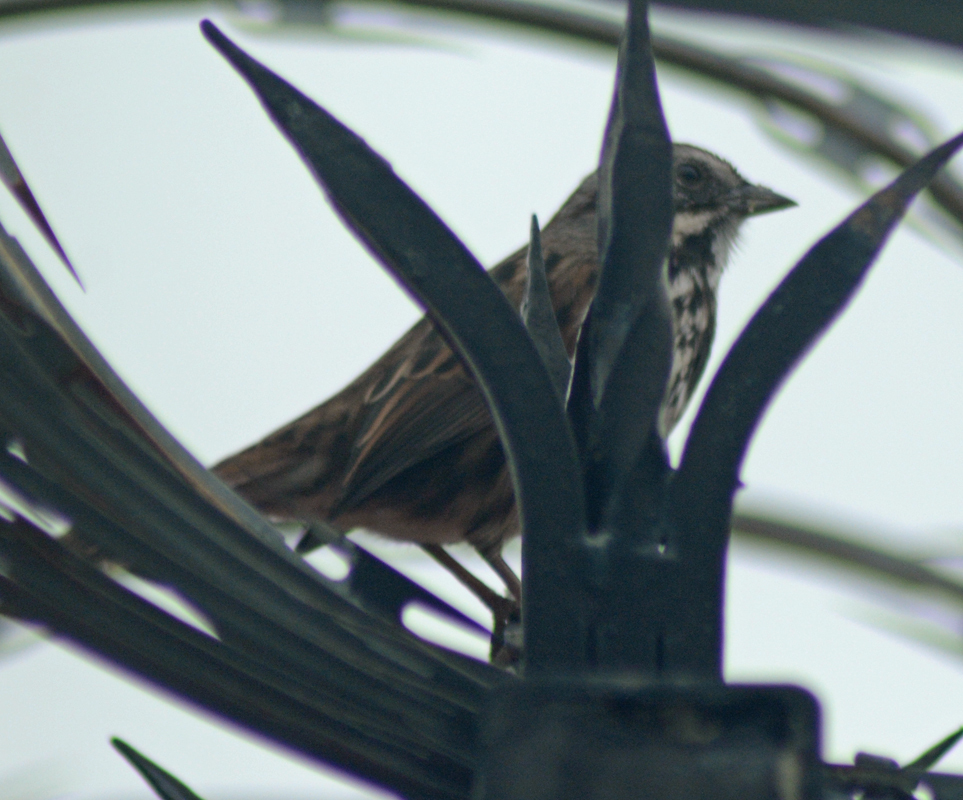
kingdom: Animalia
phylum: Chordata
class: Aves
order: Passeriformes
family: Passerellidae
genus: Melospiza
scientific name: Melospiza melodia
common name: Song sparrow
